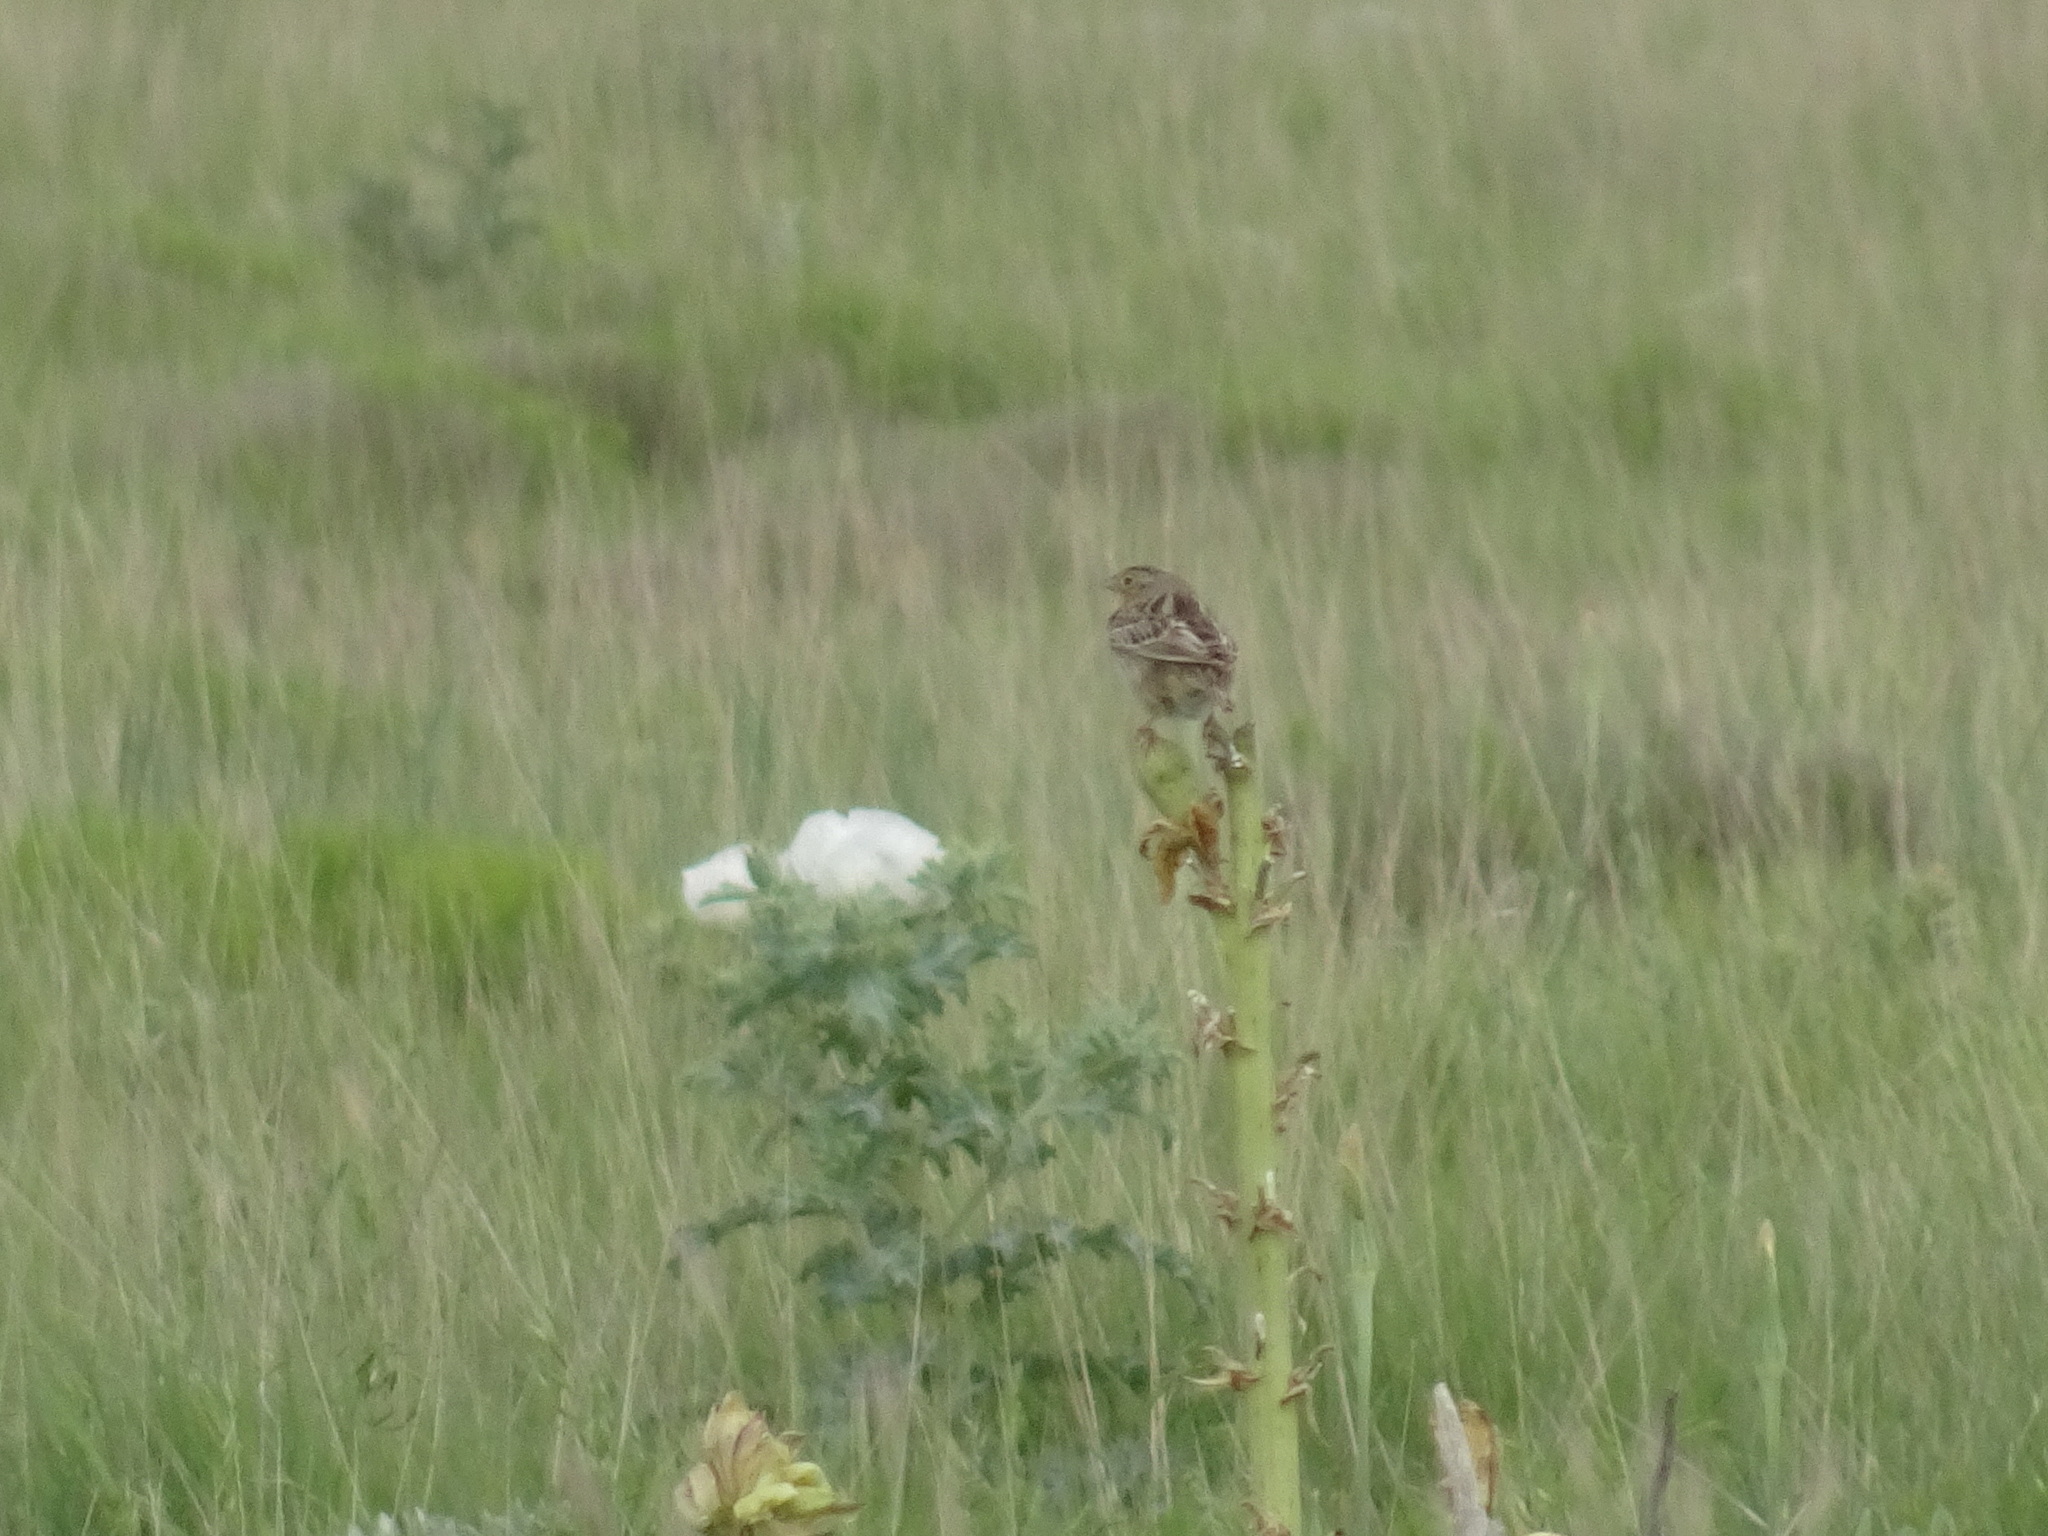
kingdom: Animalia
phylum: Chordata
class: Aves
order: Passeriformes
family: Passerellidae
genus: Ammodramus
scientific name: Ammodramus savannarum
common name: Grasshopper sparrow
